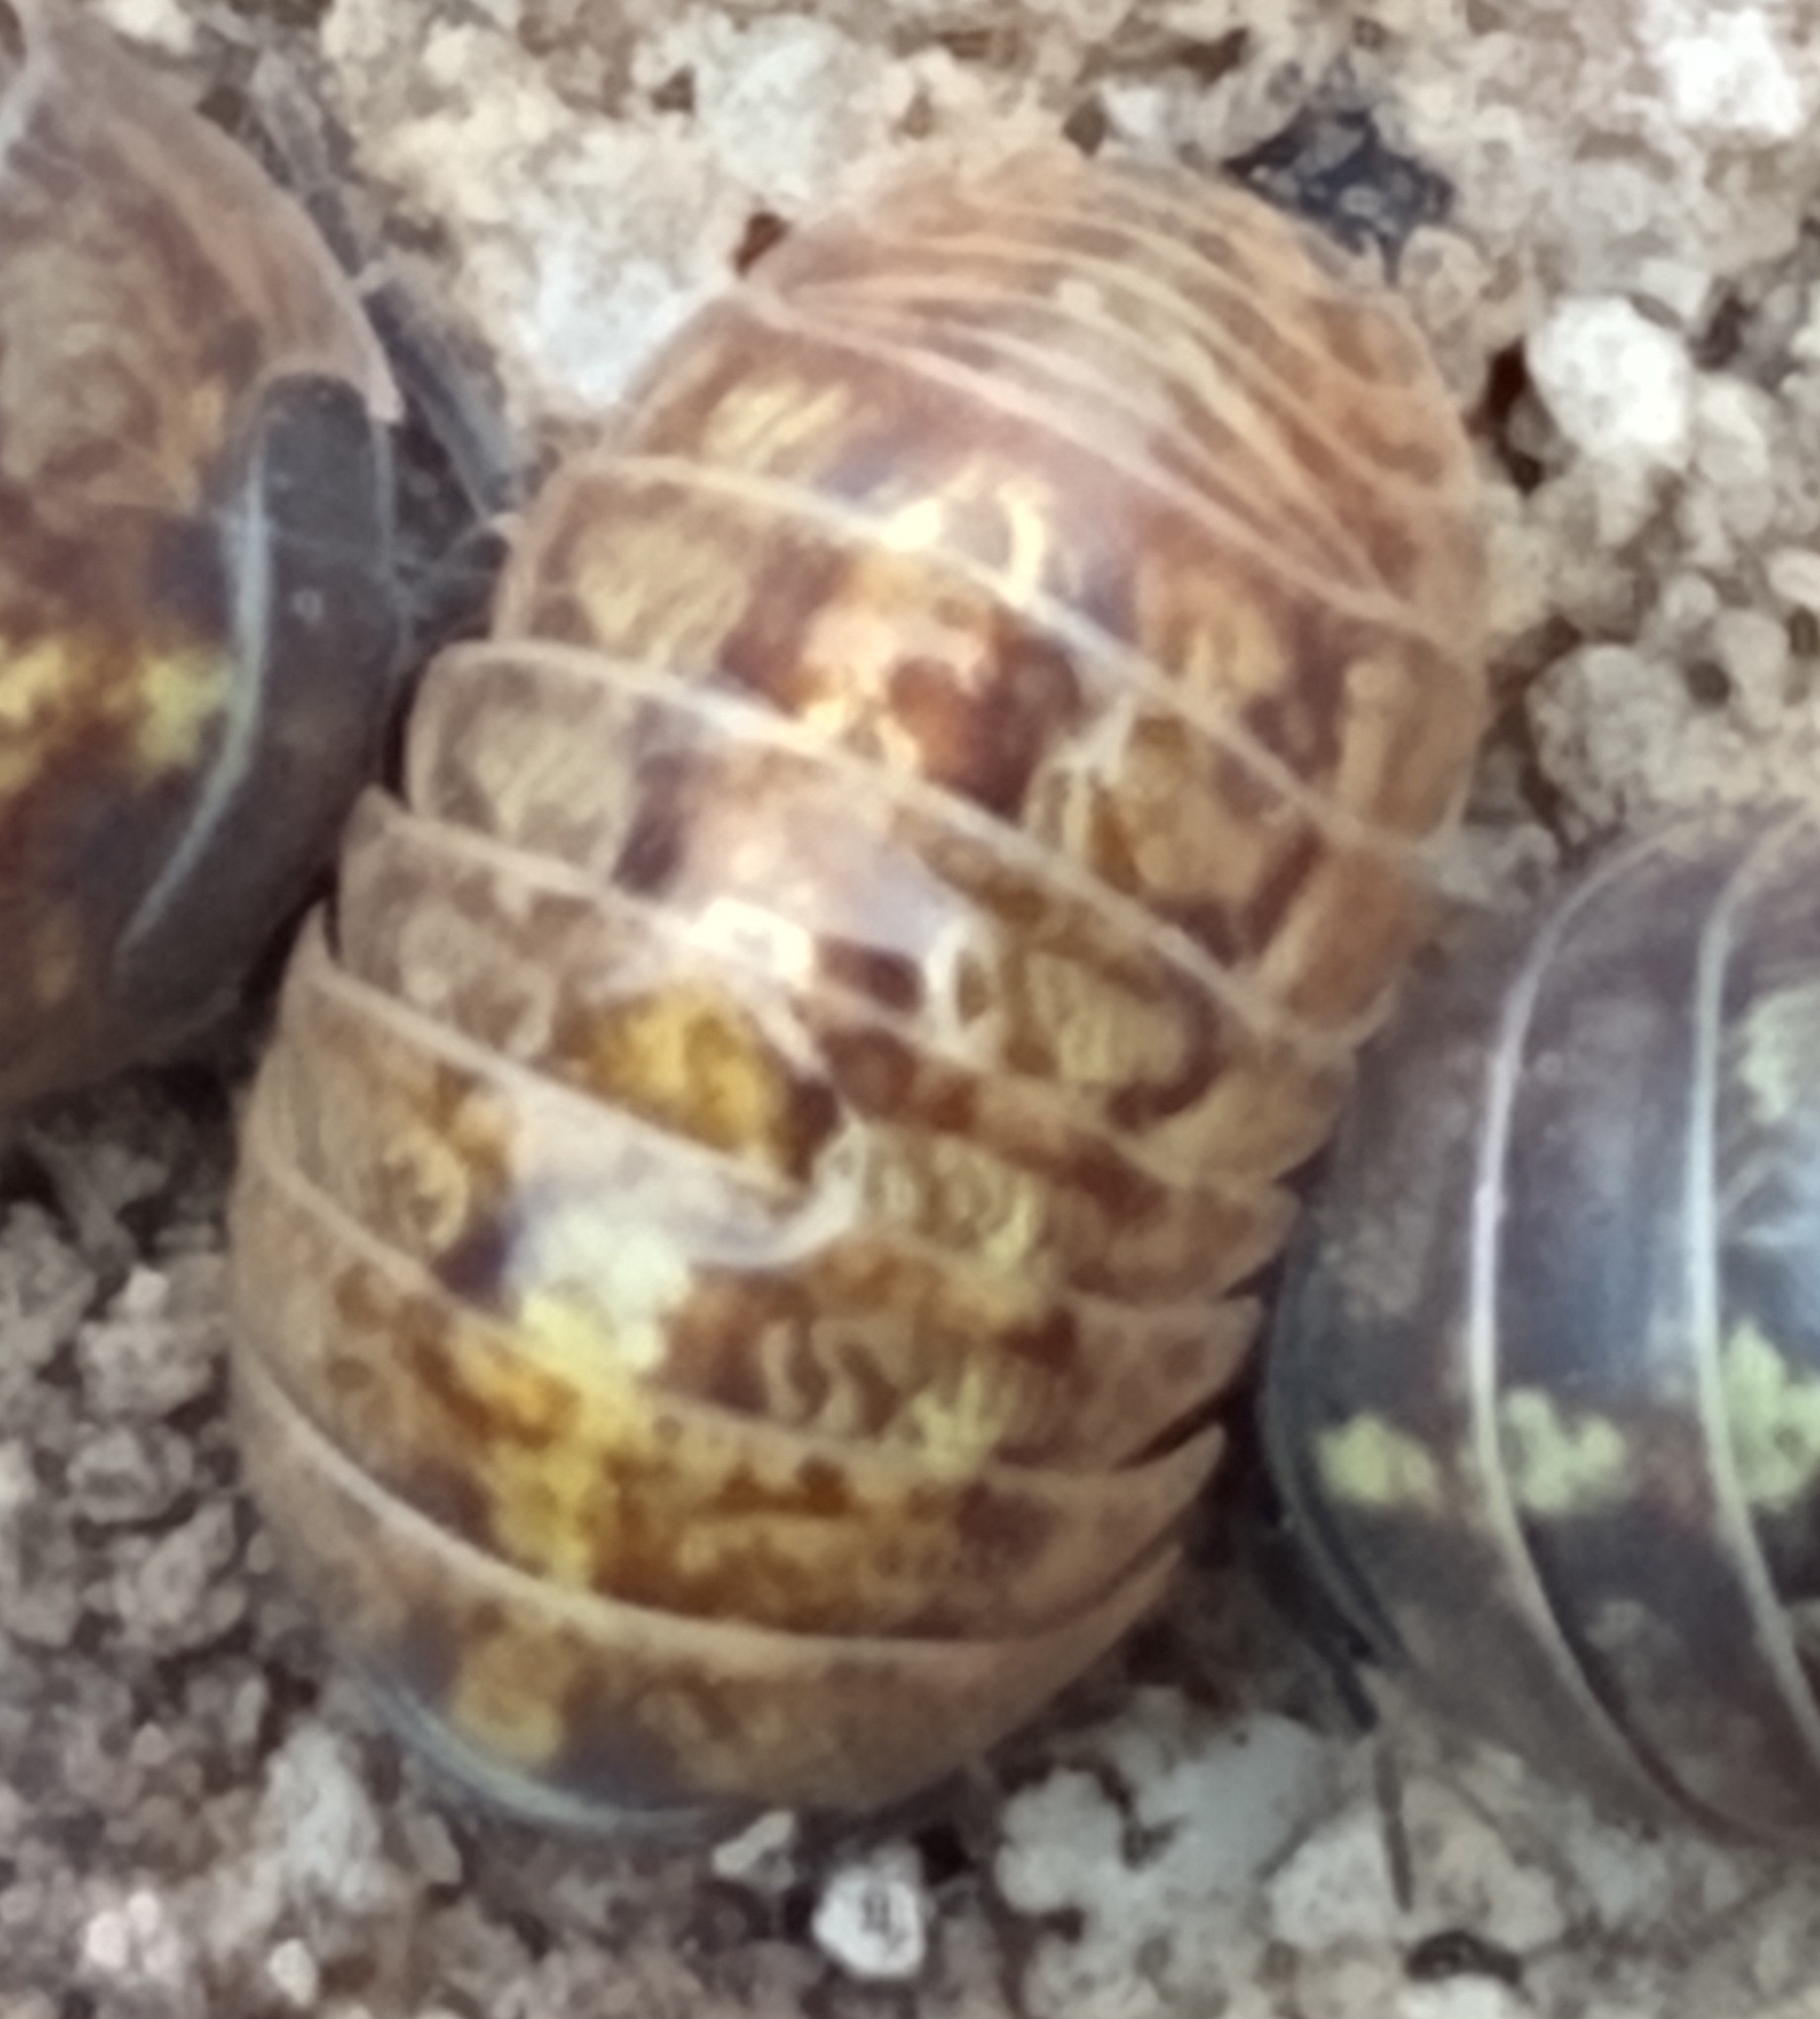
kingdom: Animalia
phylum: Arthropoda
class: Malacostraca
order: Isopoda
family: Armadillidiidae
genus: Armadillidium
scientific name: Armadillidium vulgare
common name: Common pill woodlouse
